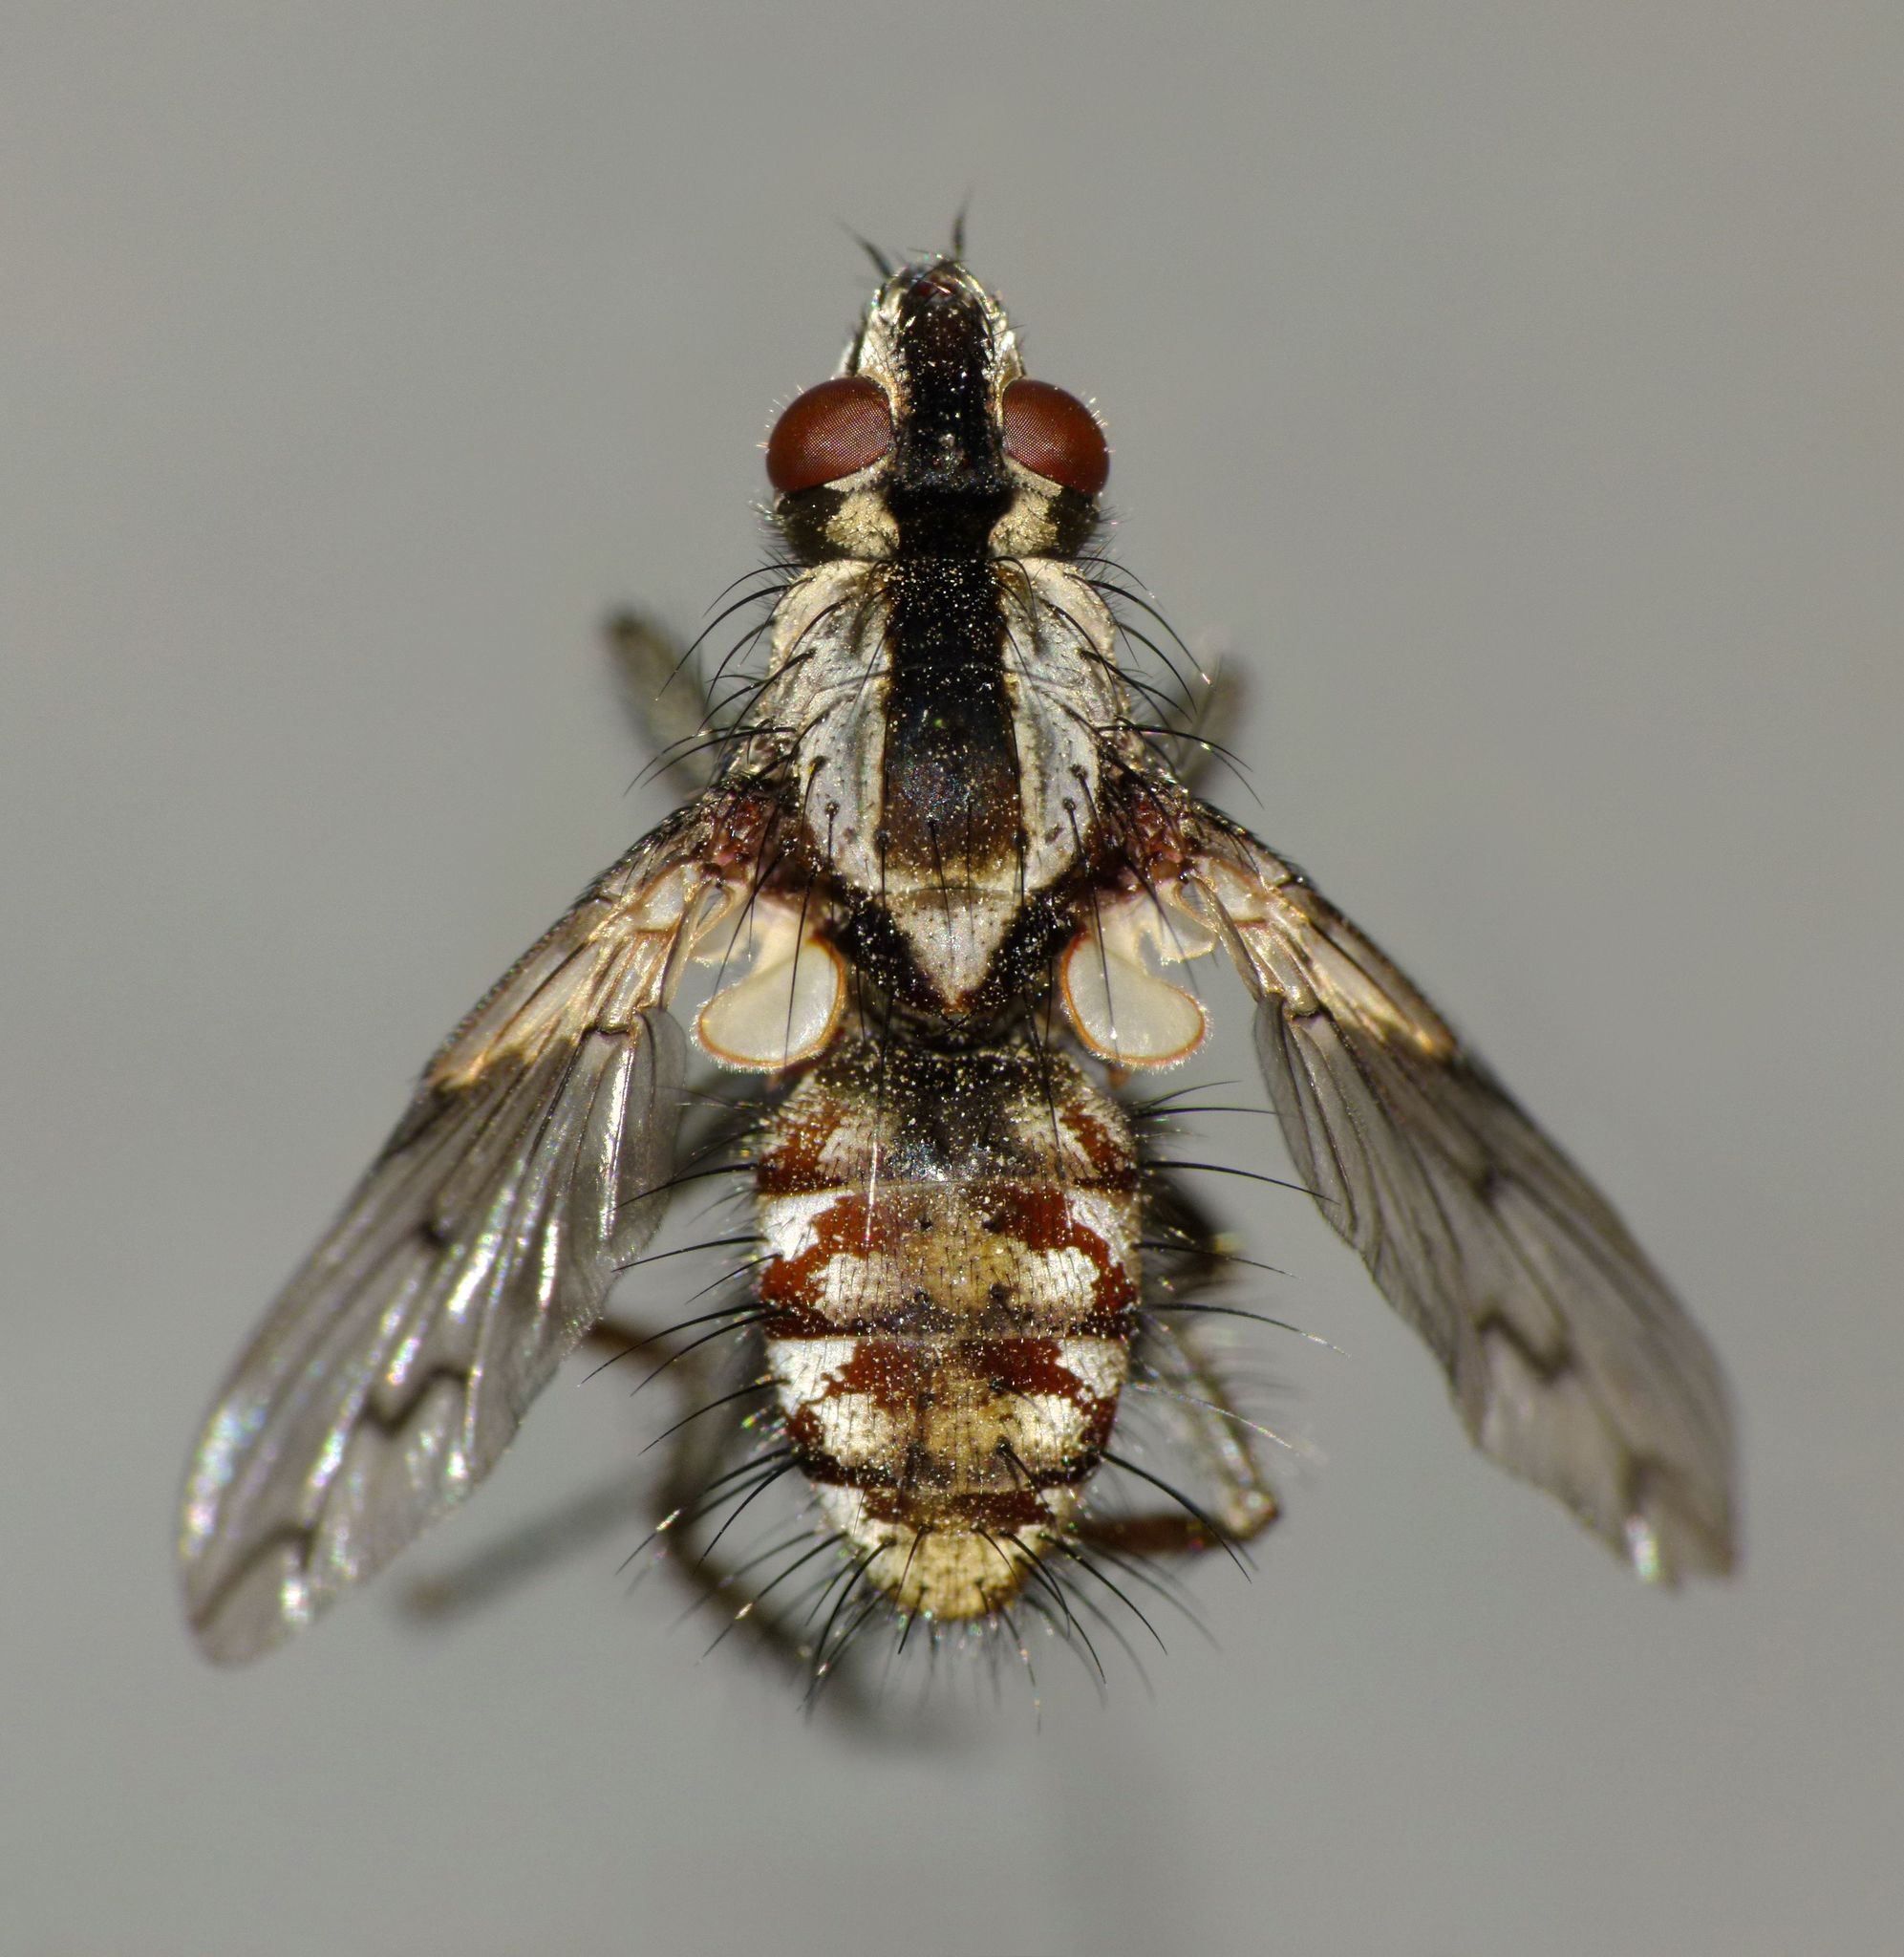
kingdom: Animalia
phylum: Arthropoda
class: Insecta
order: Diptera
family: Tachinidae
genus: Proscissio
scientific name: Proscissio milleri
